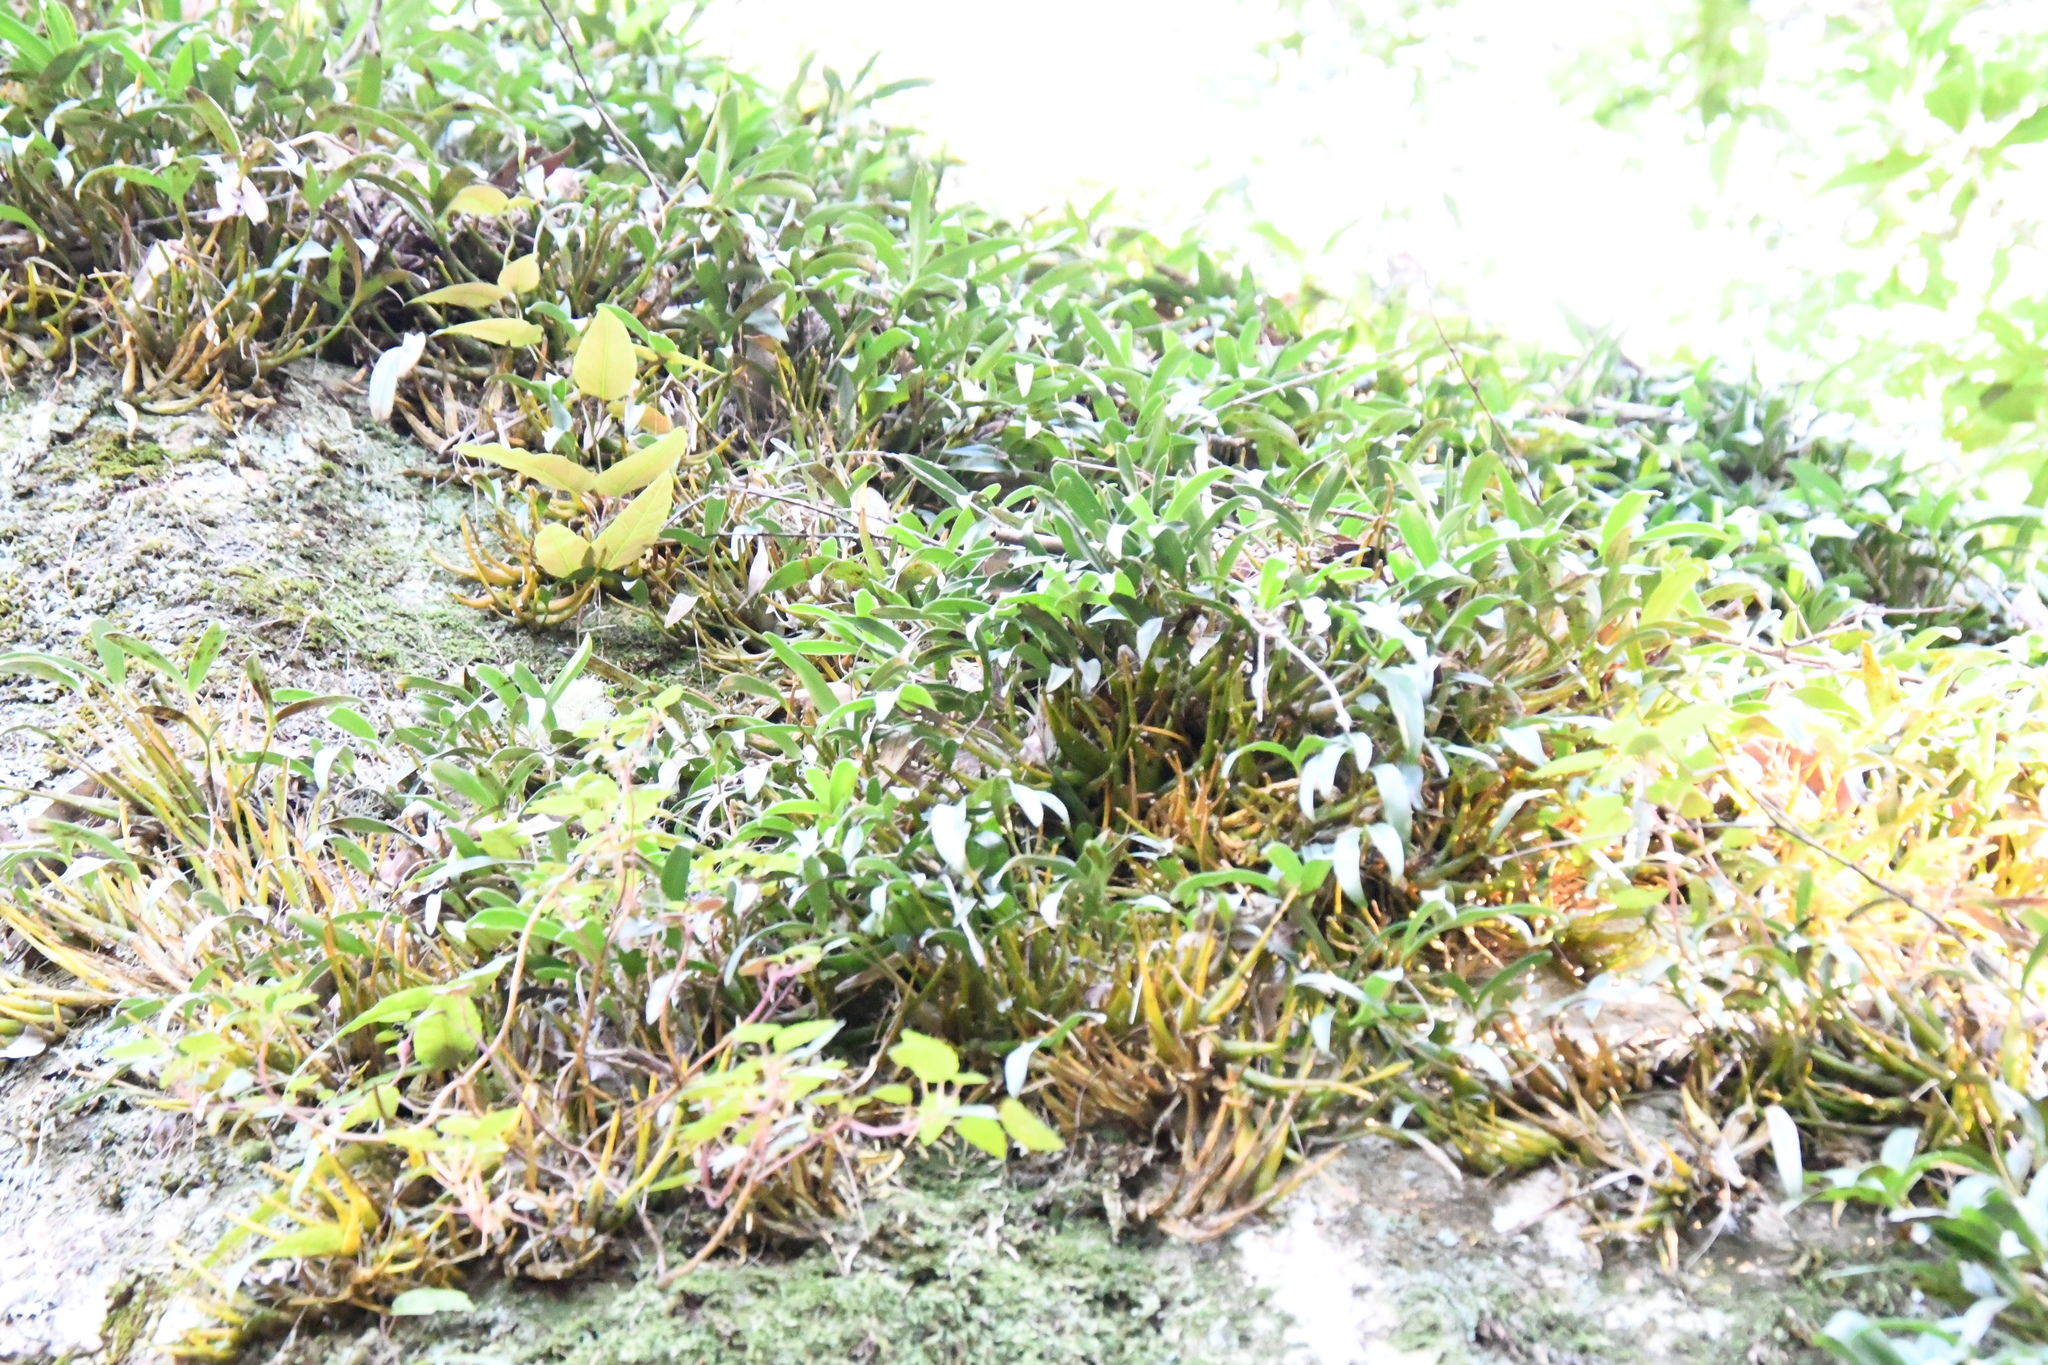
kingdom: Plantae
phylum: Tracheophyta
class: Liliopsida
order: Asparagales
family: Orchidaceae
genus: Dendrobium
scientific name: Dendrobium kingianum
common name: Pink rock orchid
